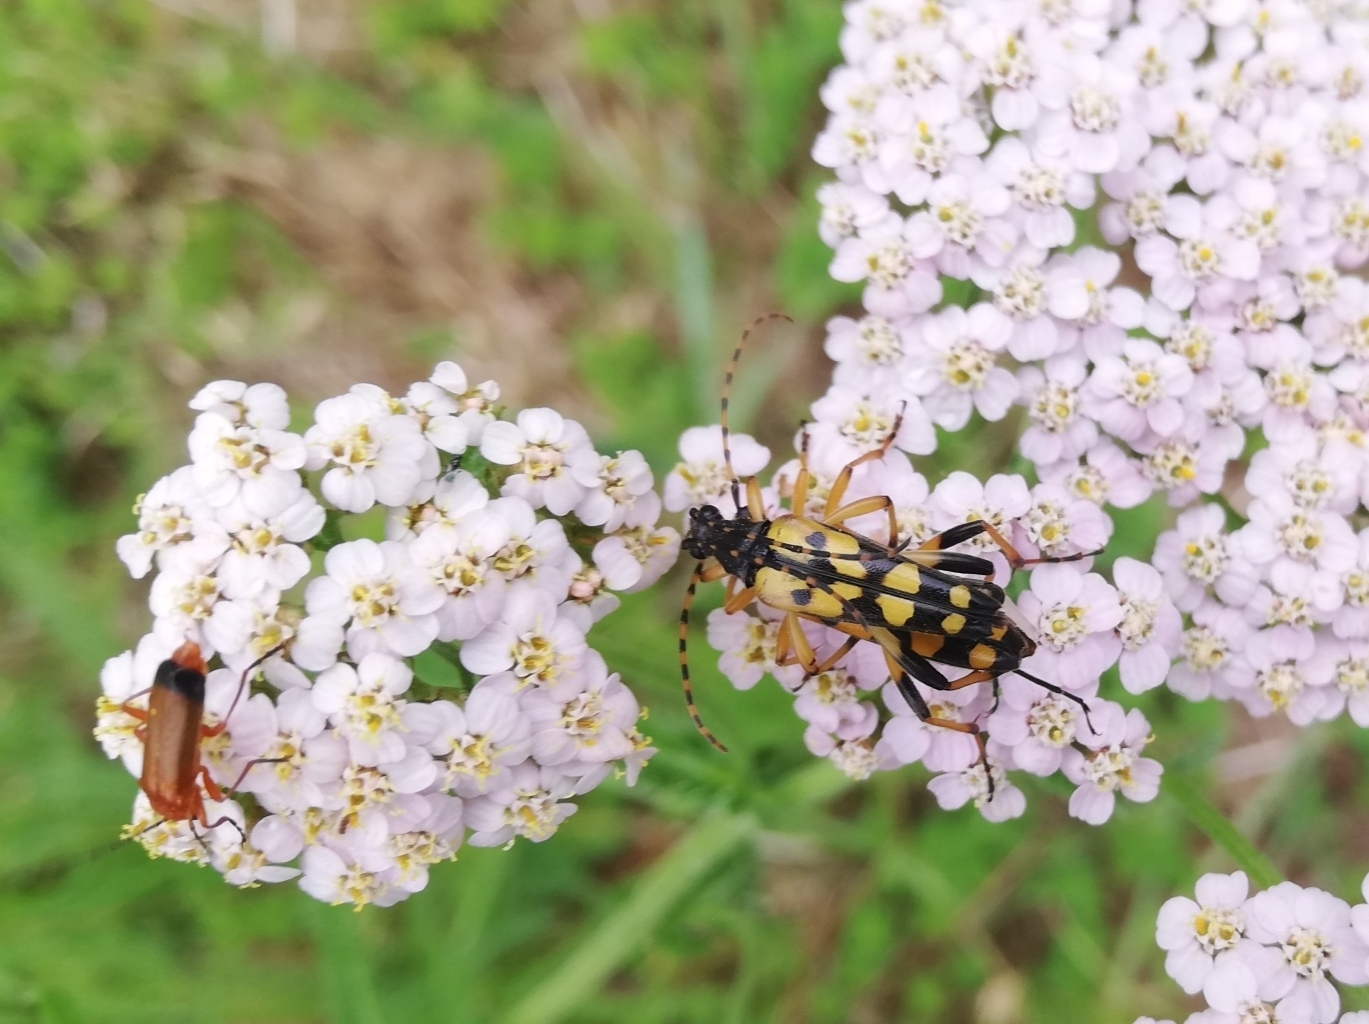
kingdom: Animalia
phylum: Arthropoda
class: Insecta
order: Coleoptera
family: Cerambycidae
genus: Rutpela
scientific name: Rutpela maculata
